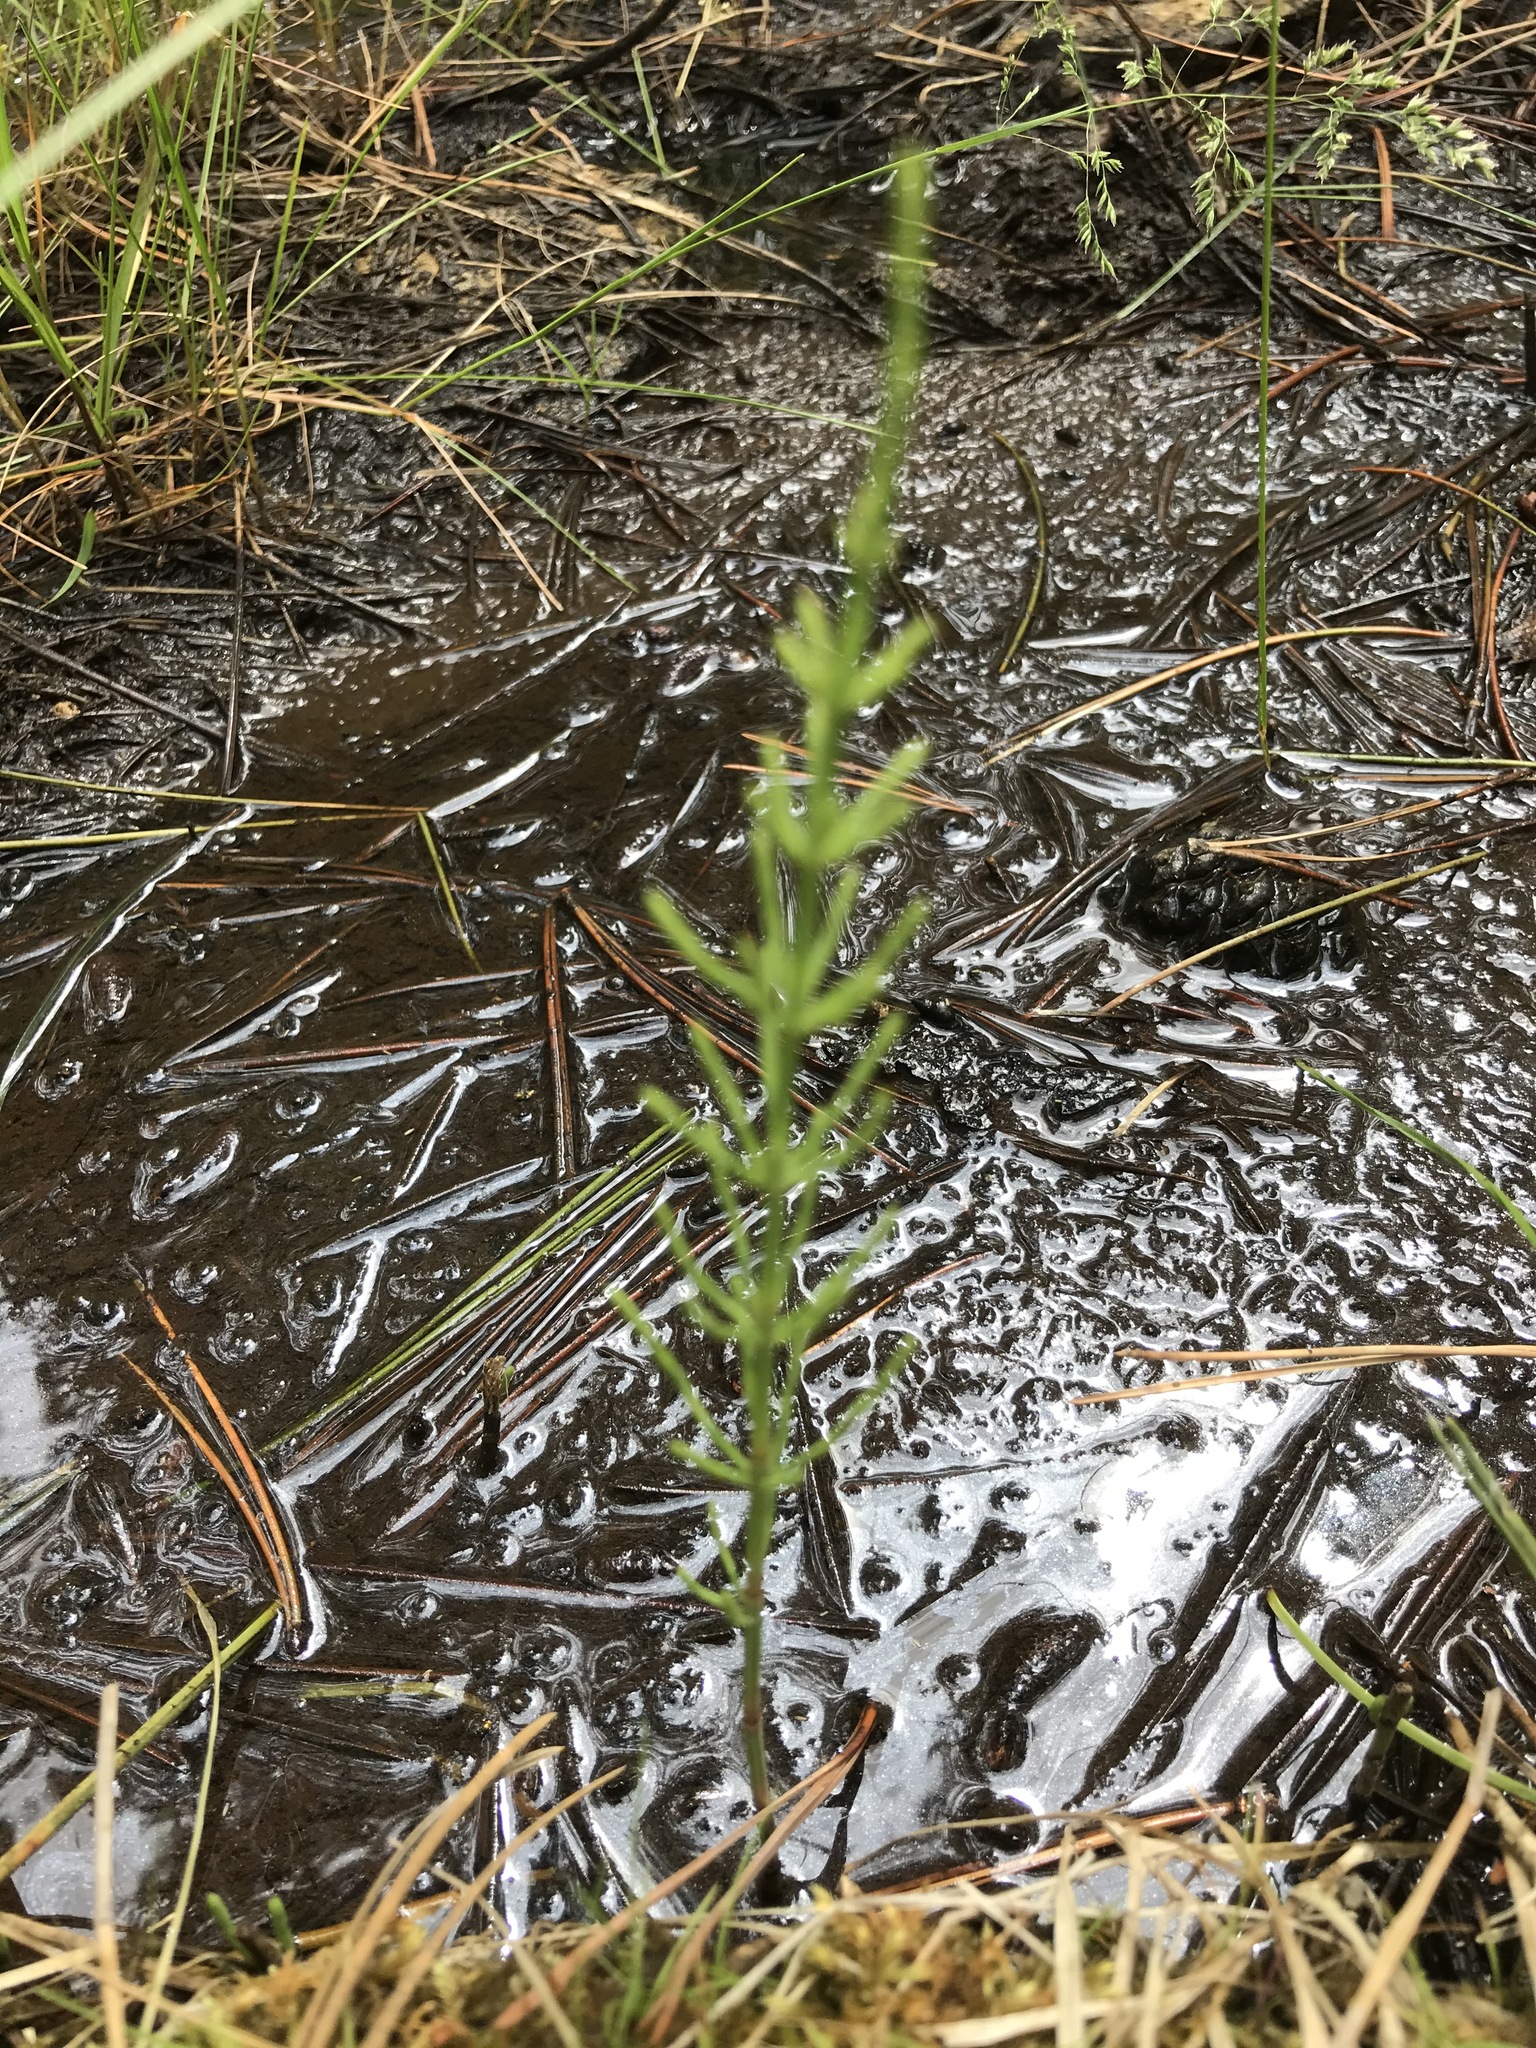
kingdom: Plantae
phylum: Tracheophyta
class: Polypodiopsida
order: Equisetales
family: Equisetaceae
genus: Equisetum
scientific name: Equisetum arvense
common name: Field horsetail
